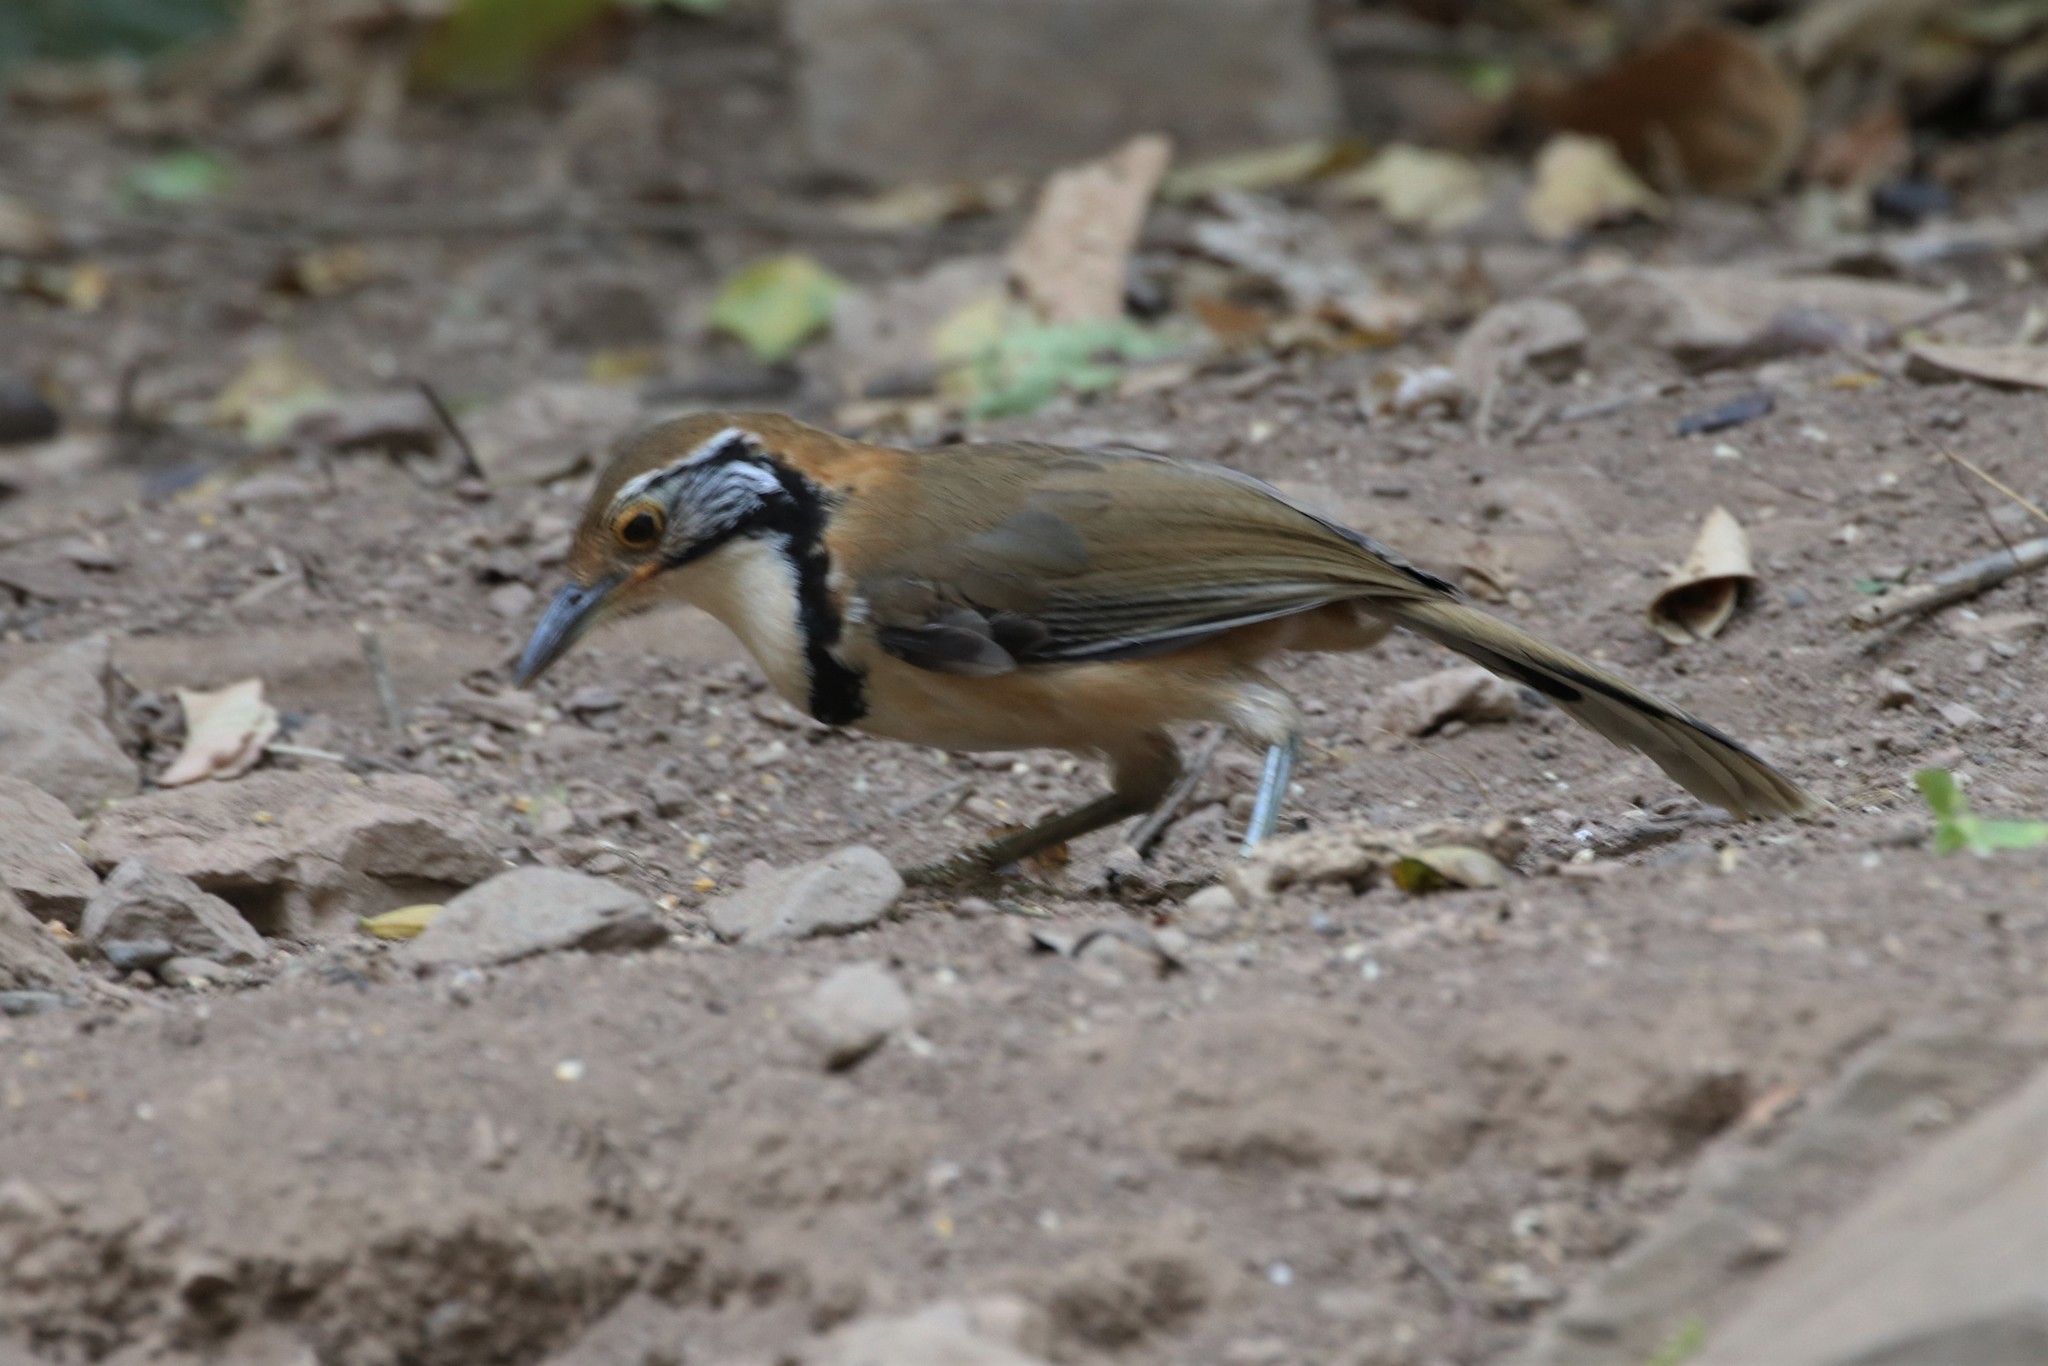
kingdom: Animalia
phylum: Chordata
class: Aves
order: Passeriformes
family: Leiothrichidae
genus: Garrulax
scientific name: Garrulax pectoralis
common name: Greater necklaced laughingthrush
